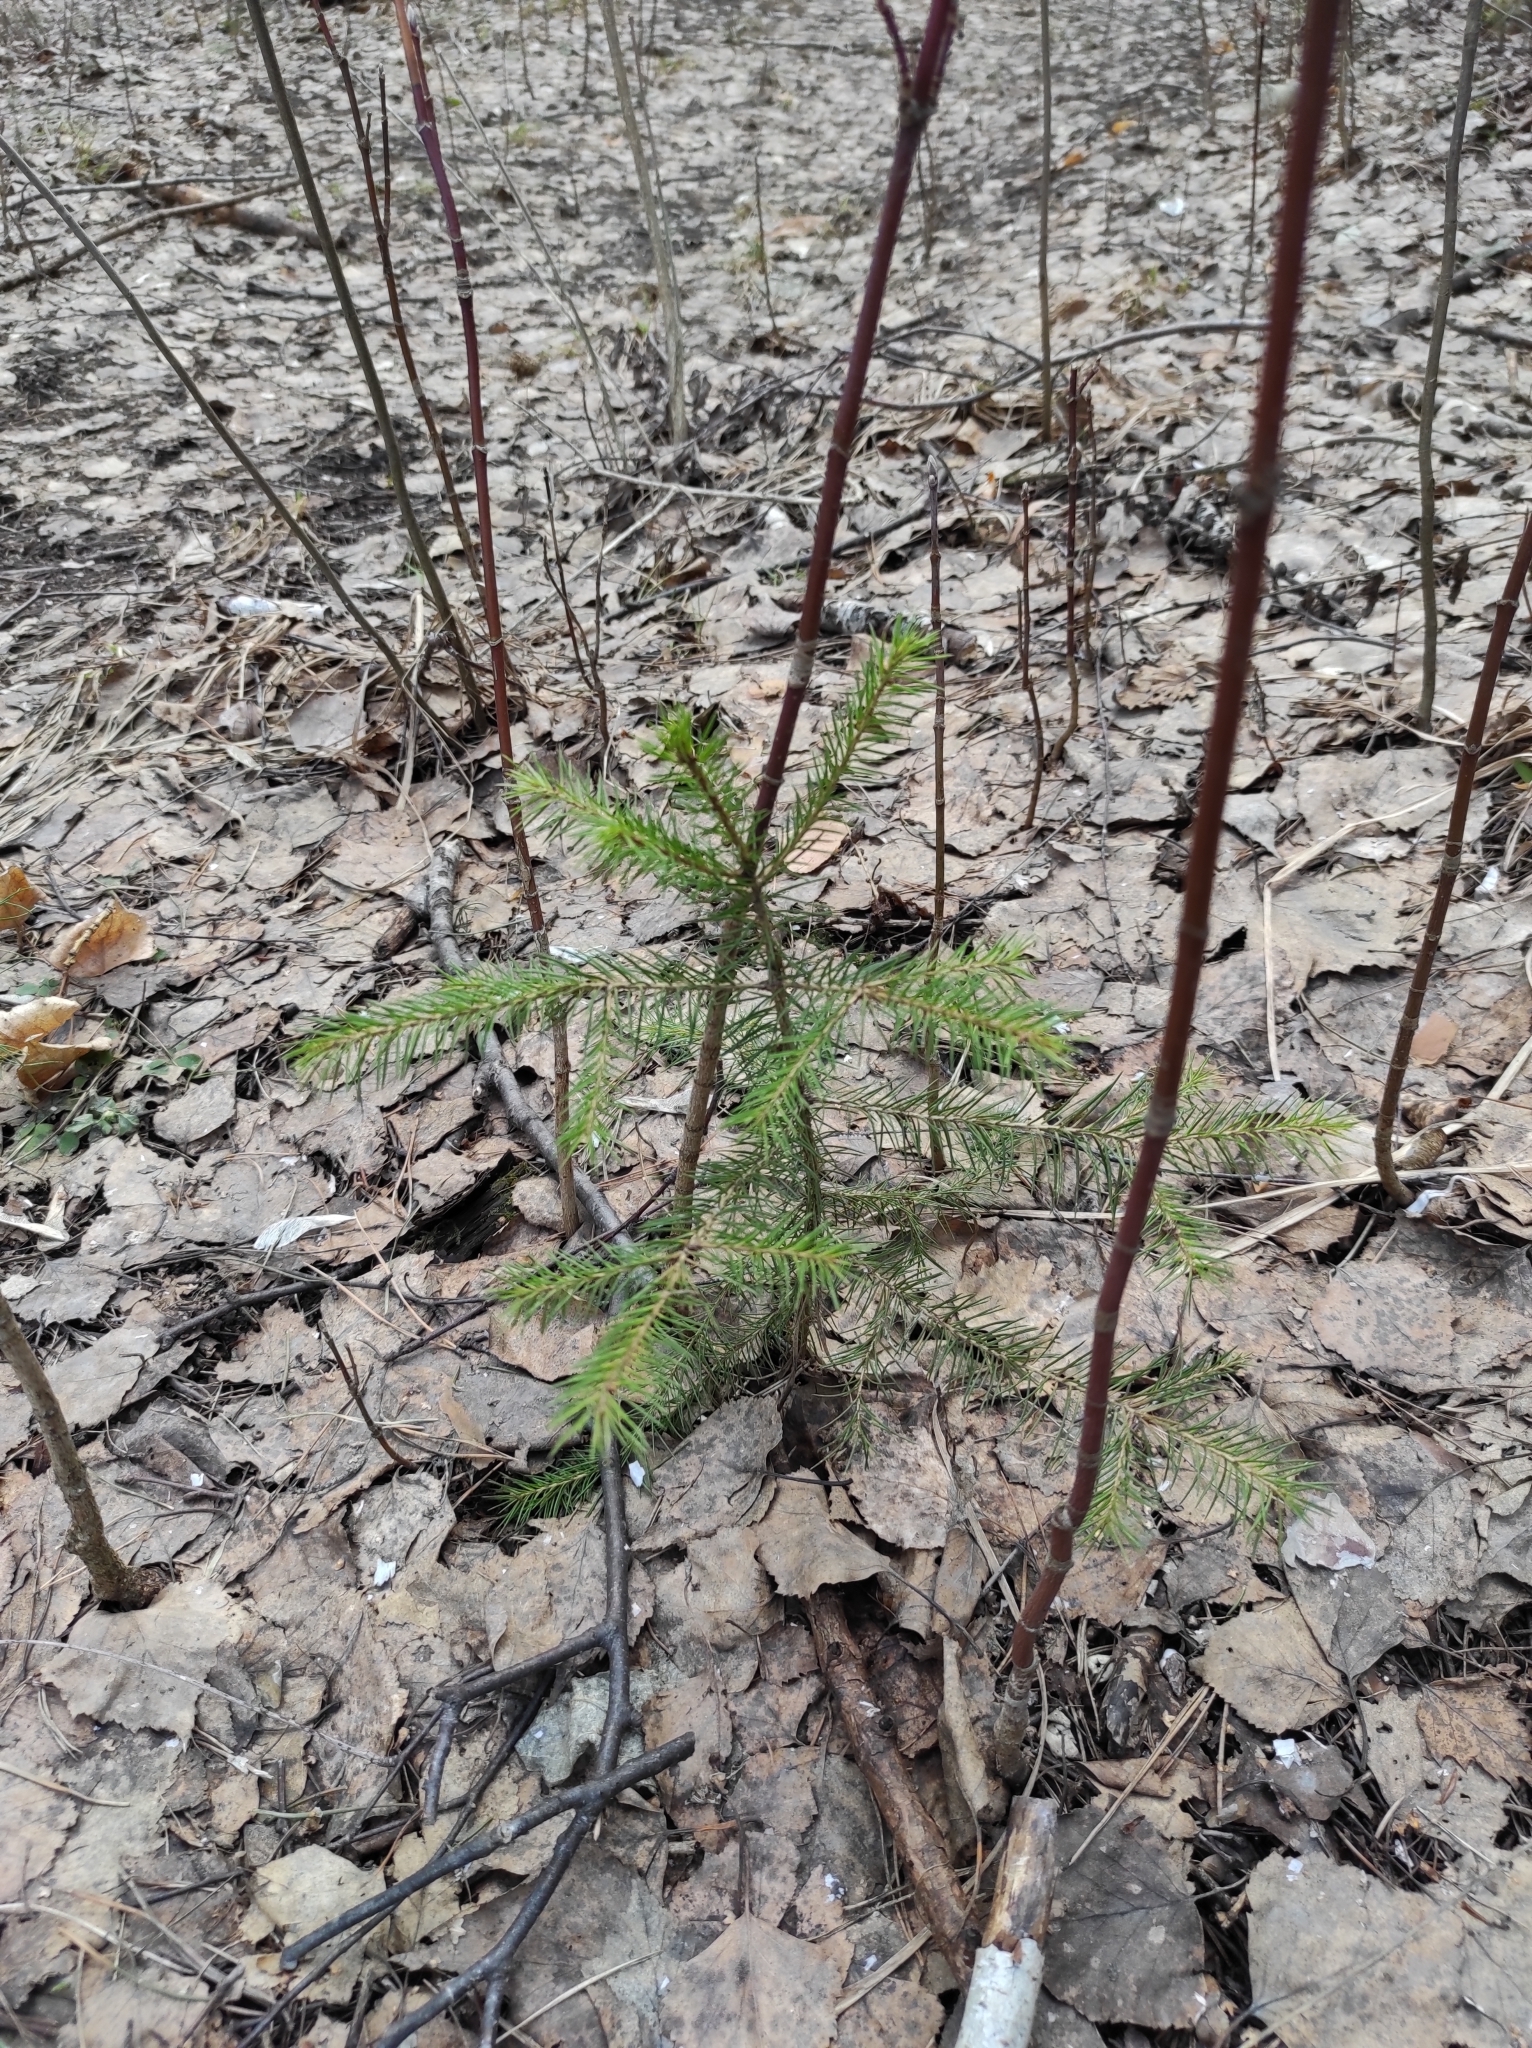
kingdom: Plantae
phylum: Tracheophyta
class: Pinopsida
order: Pinales
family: Pinaceae
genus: Picea
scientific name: Picea obovata
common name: Siberian spruce
